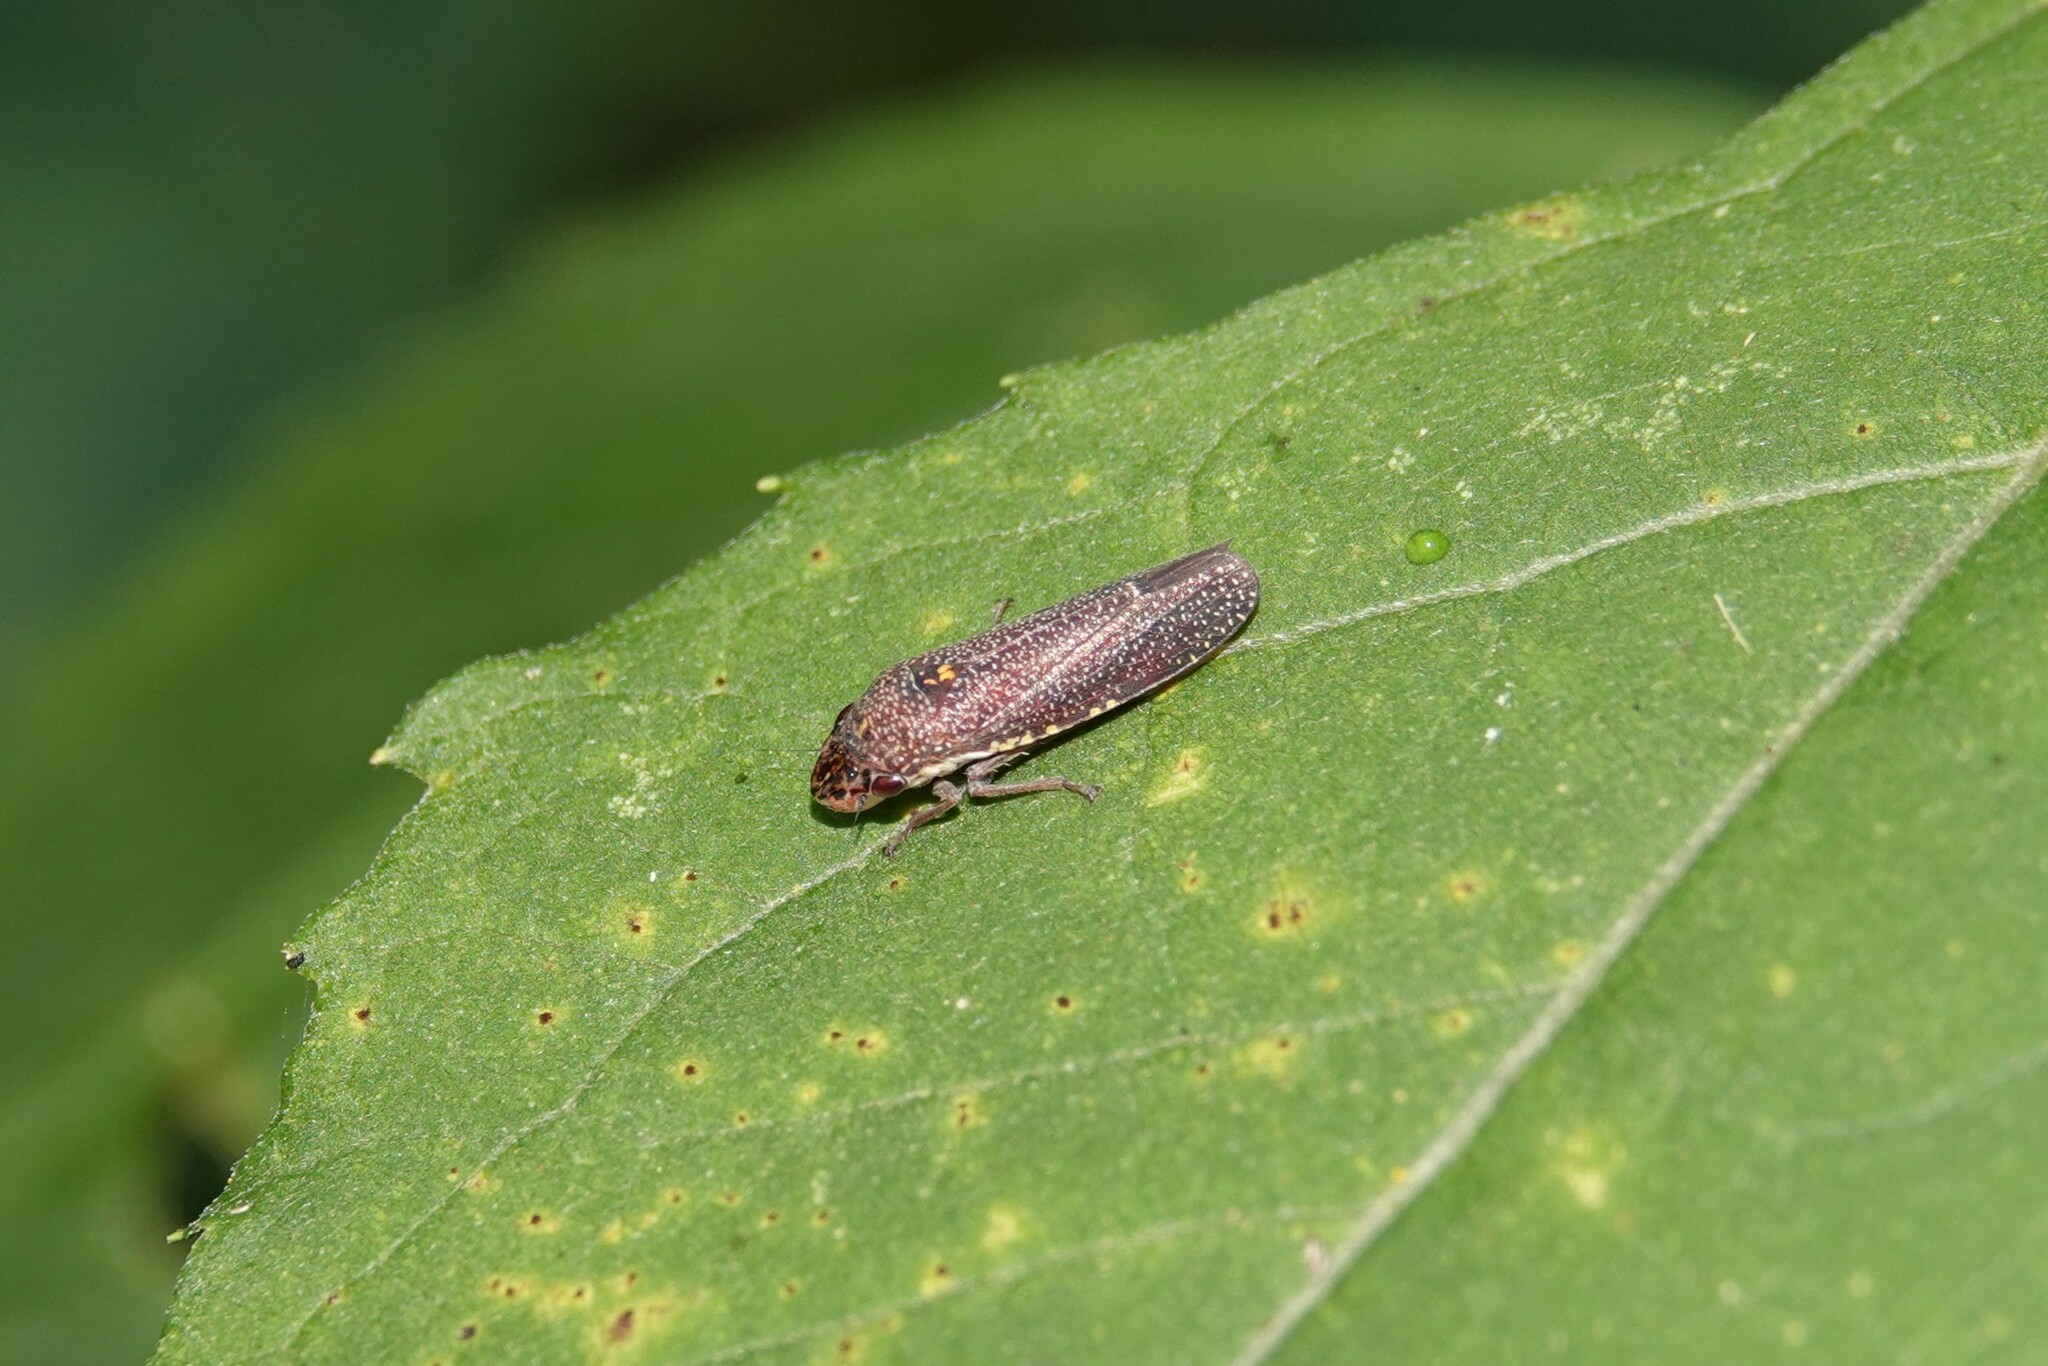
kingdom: Animalia
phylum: Arthropoda
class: Insecta
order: Hemiptera
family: Cicadellidae
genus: Paraulacizes
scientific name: Paraulacizes irrorata
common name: Speckled sharpshooter
